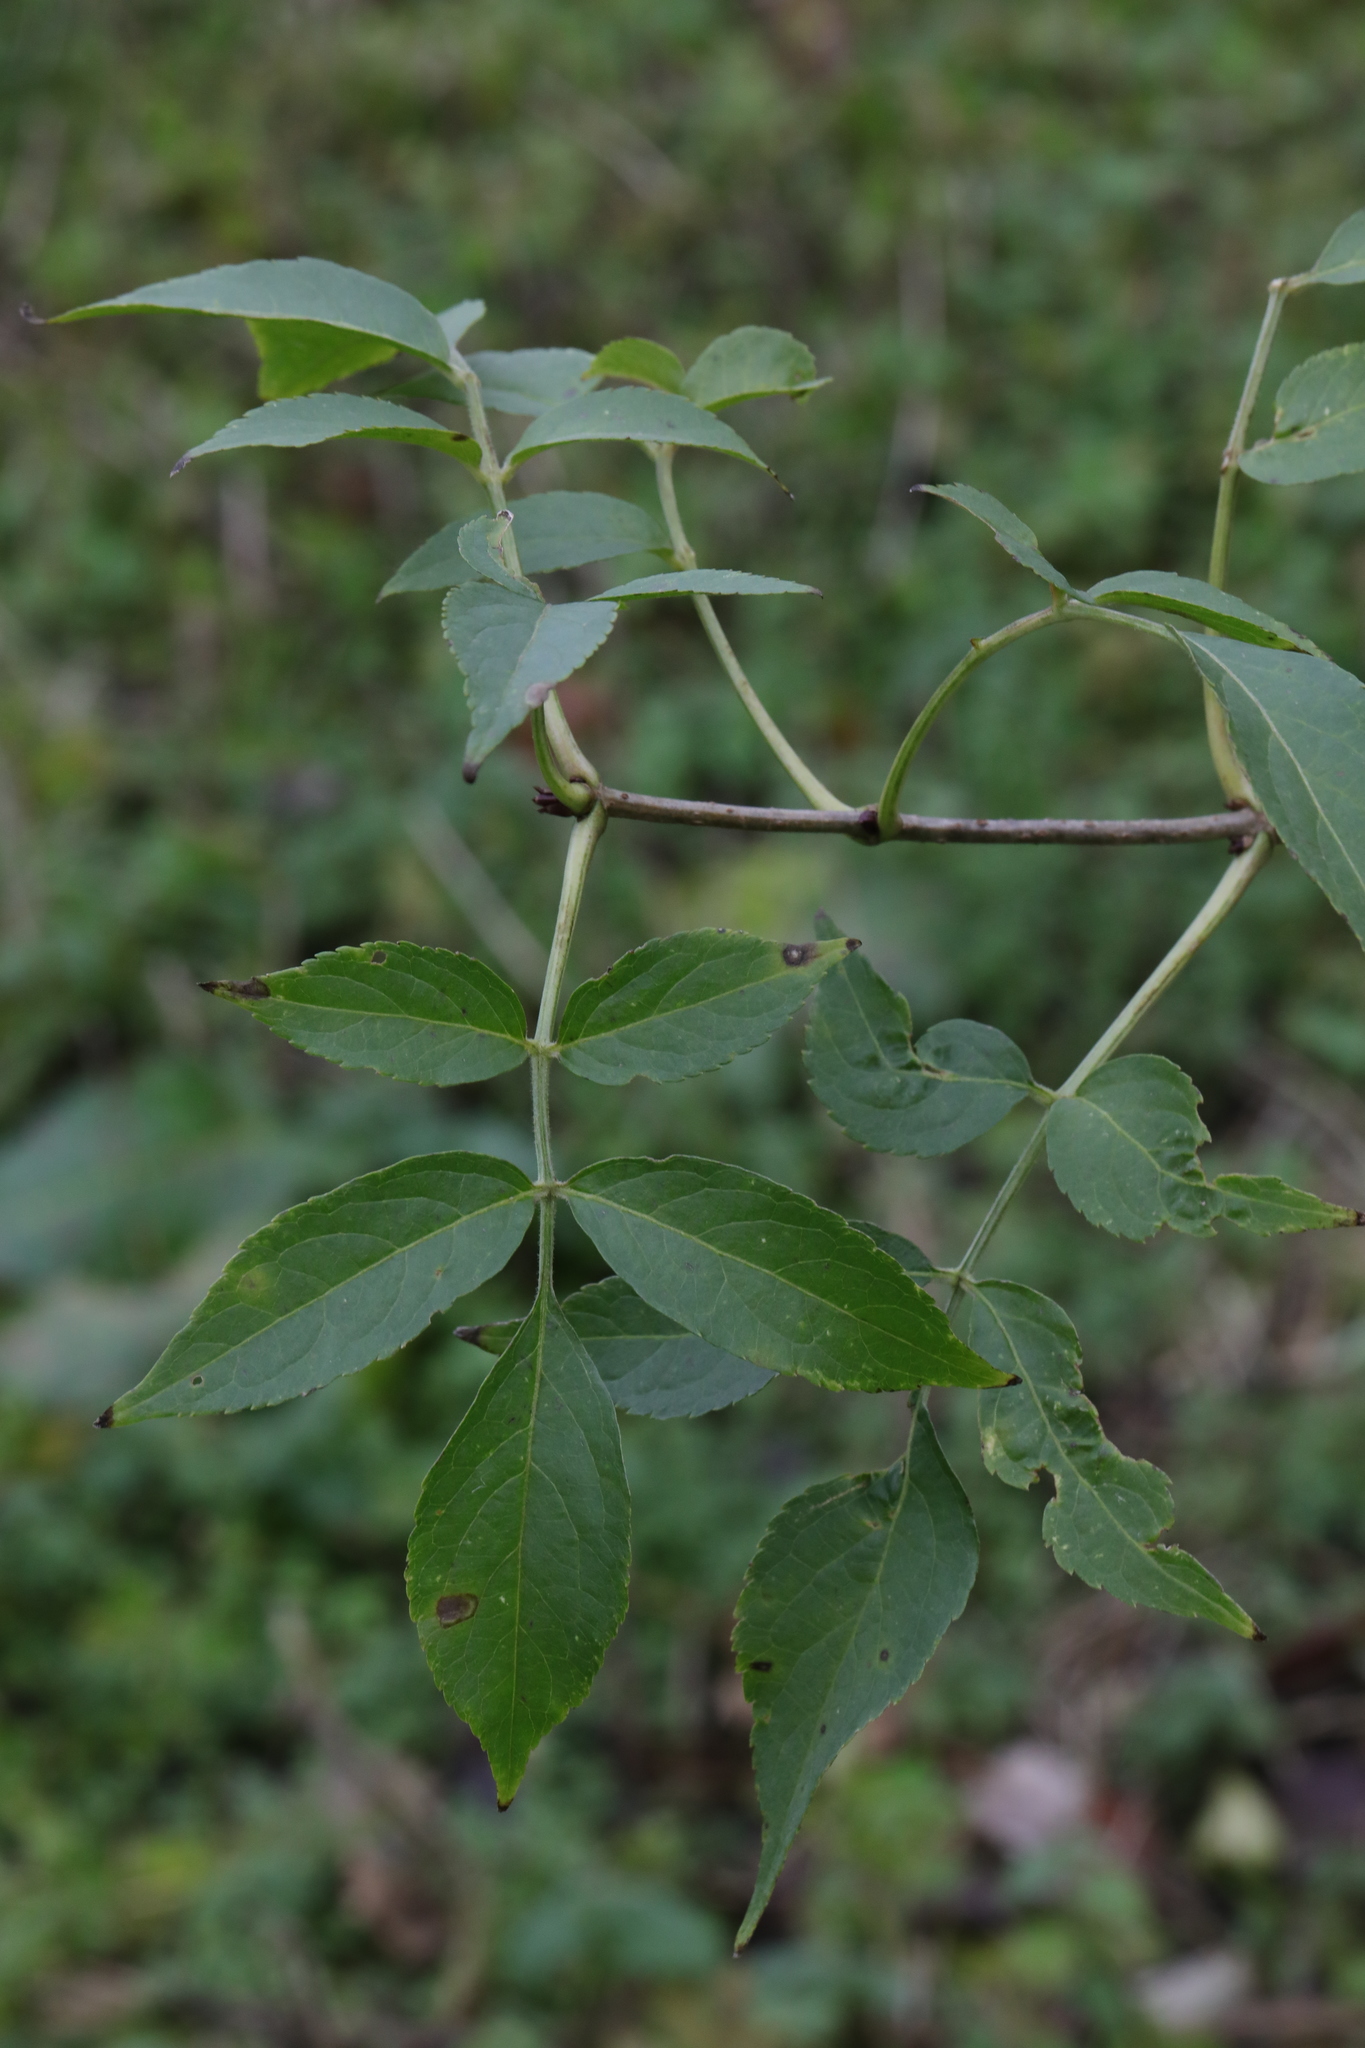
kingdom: Plantae
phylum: Tracheophyta
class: Magnoliopsida
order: Dipsacales
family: Viburnaceae
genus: Sambucus
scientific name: Sambucus nigra
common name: Elder
